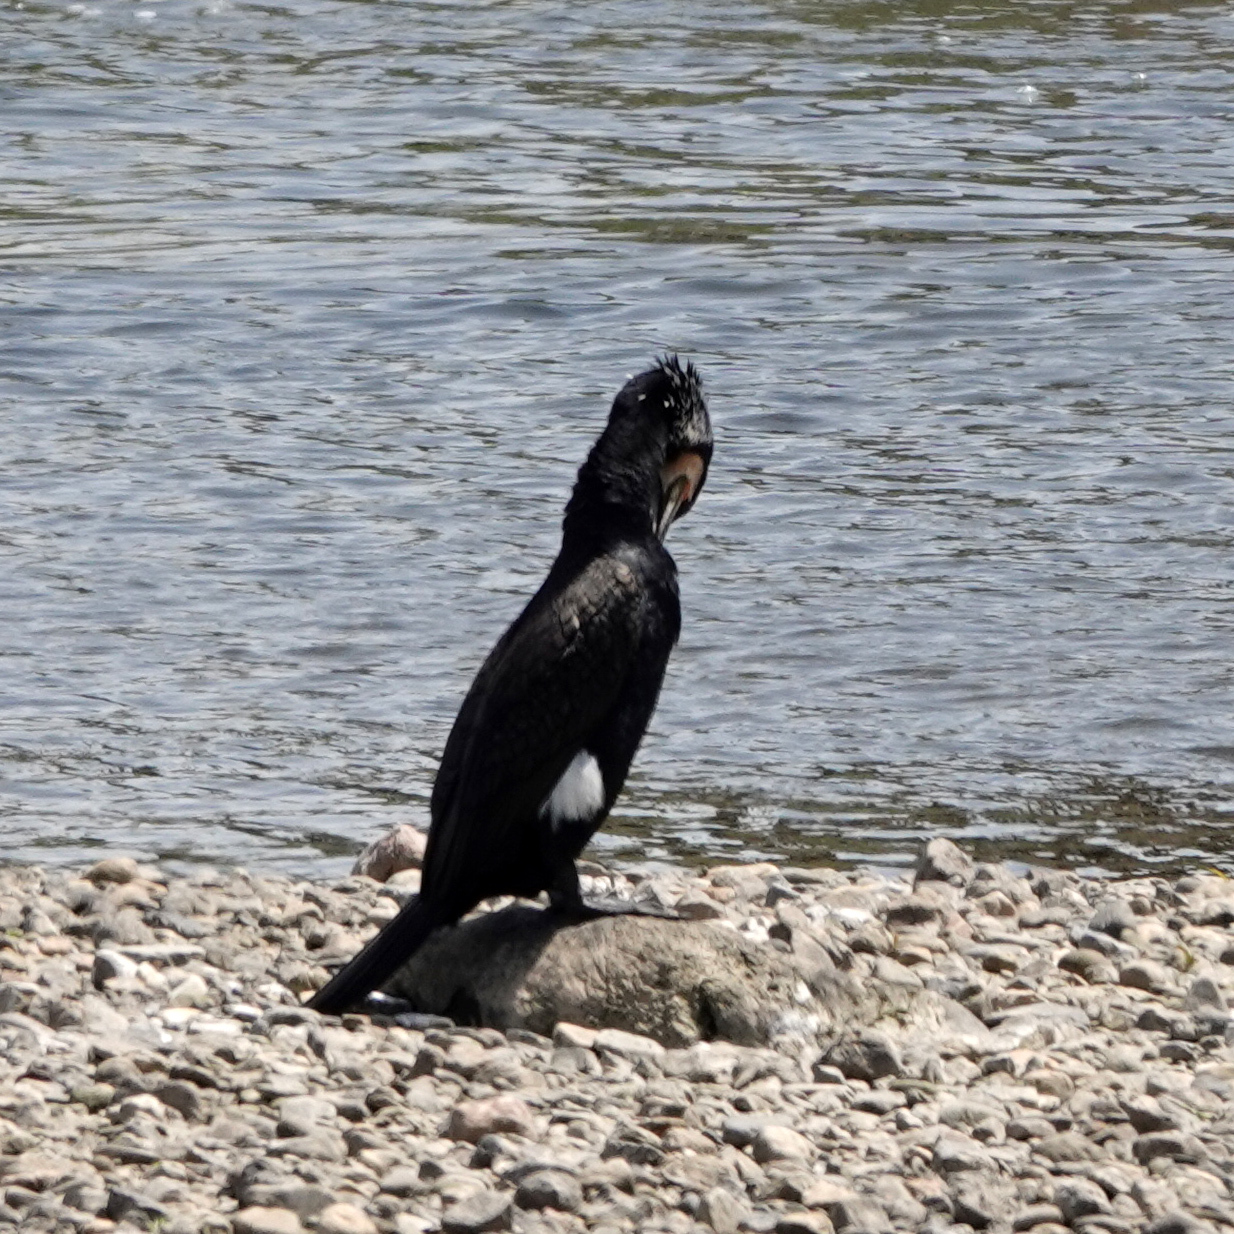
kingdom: Animalia
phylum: Chordata
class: Aves
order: Suliformes
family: Phalacrocoracidae
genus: Phalacrocorax
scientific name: Phalacrocorax carbo
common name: Great cormorant
